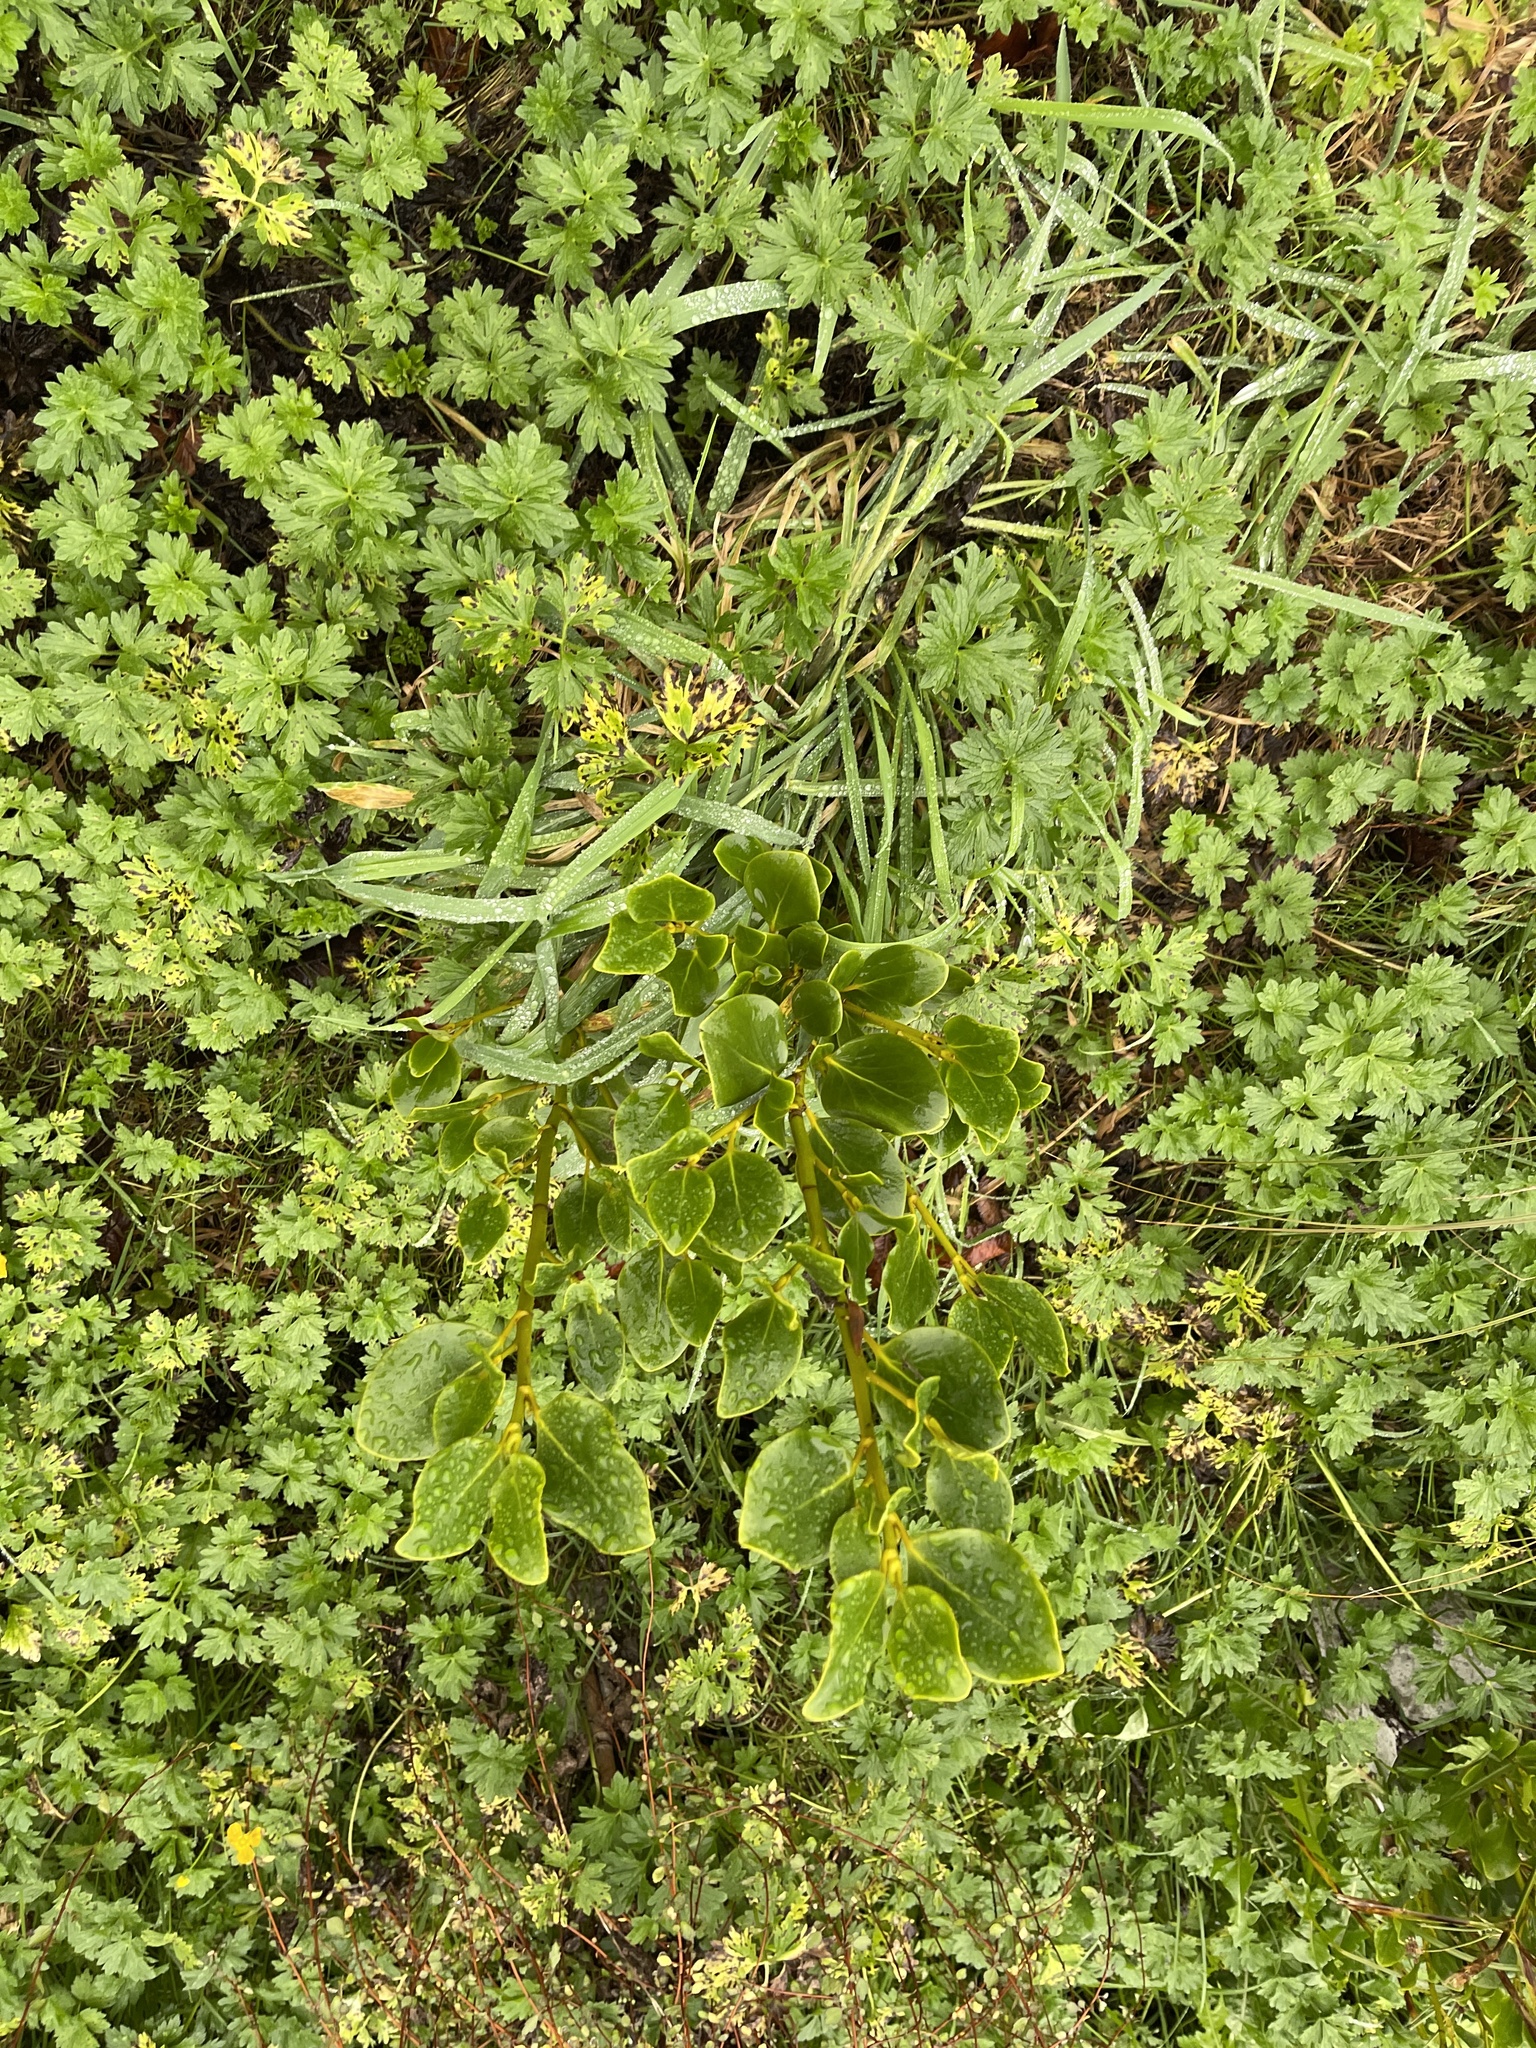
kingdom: Plantae
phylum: Tracheophyta
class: Magnoliopsida
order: Apiales
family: Griseliniaceae
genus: Griselinia
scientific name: Griselinia littoralis
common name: New zealand broadleaf
